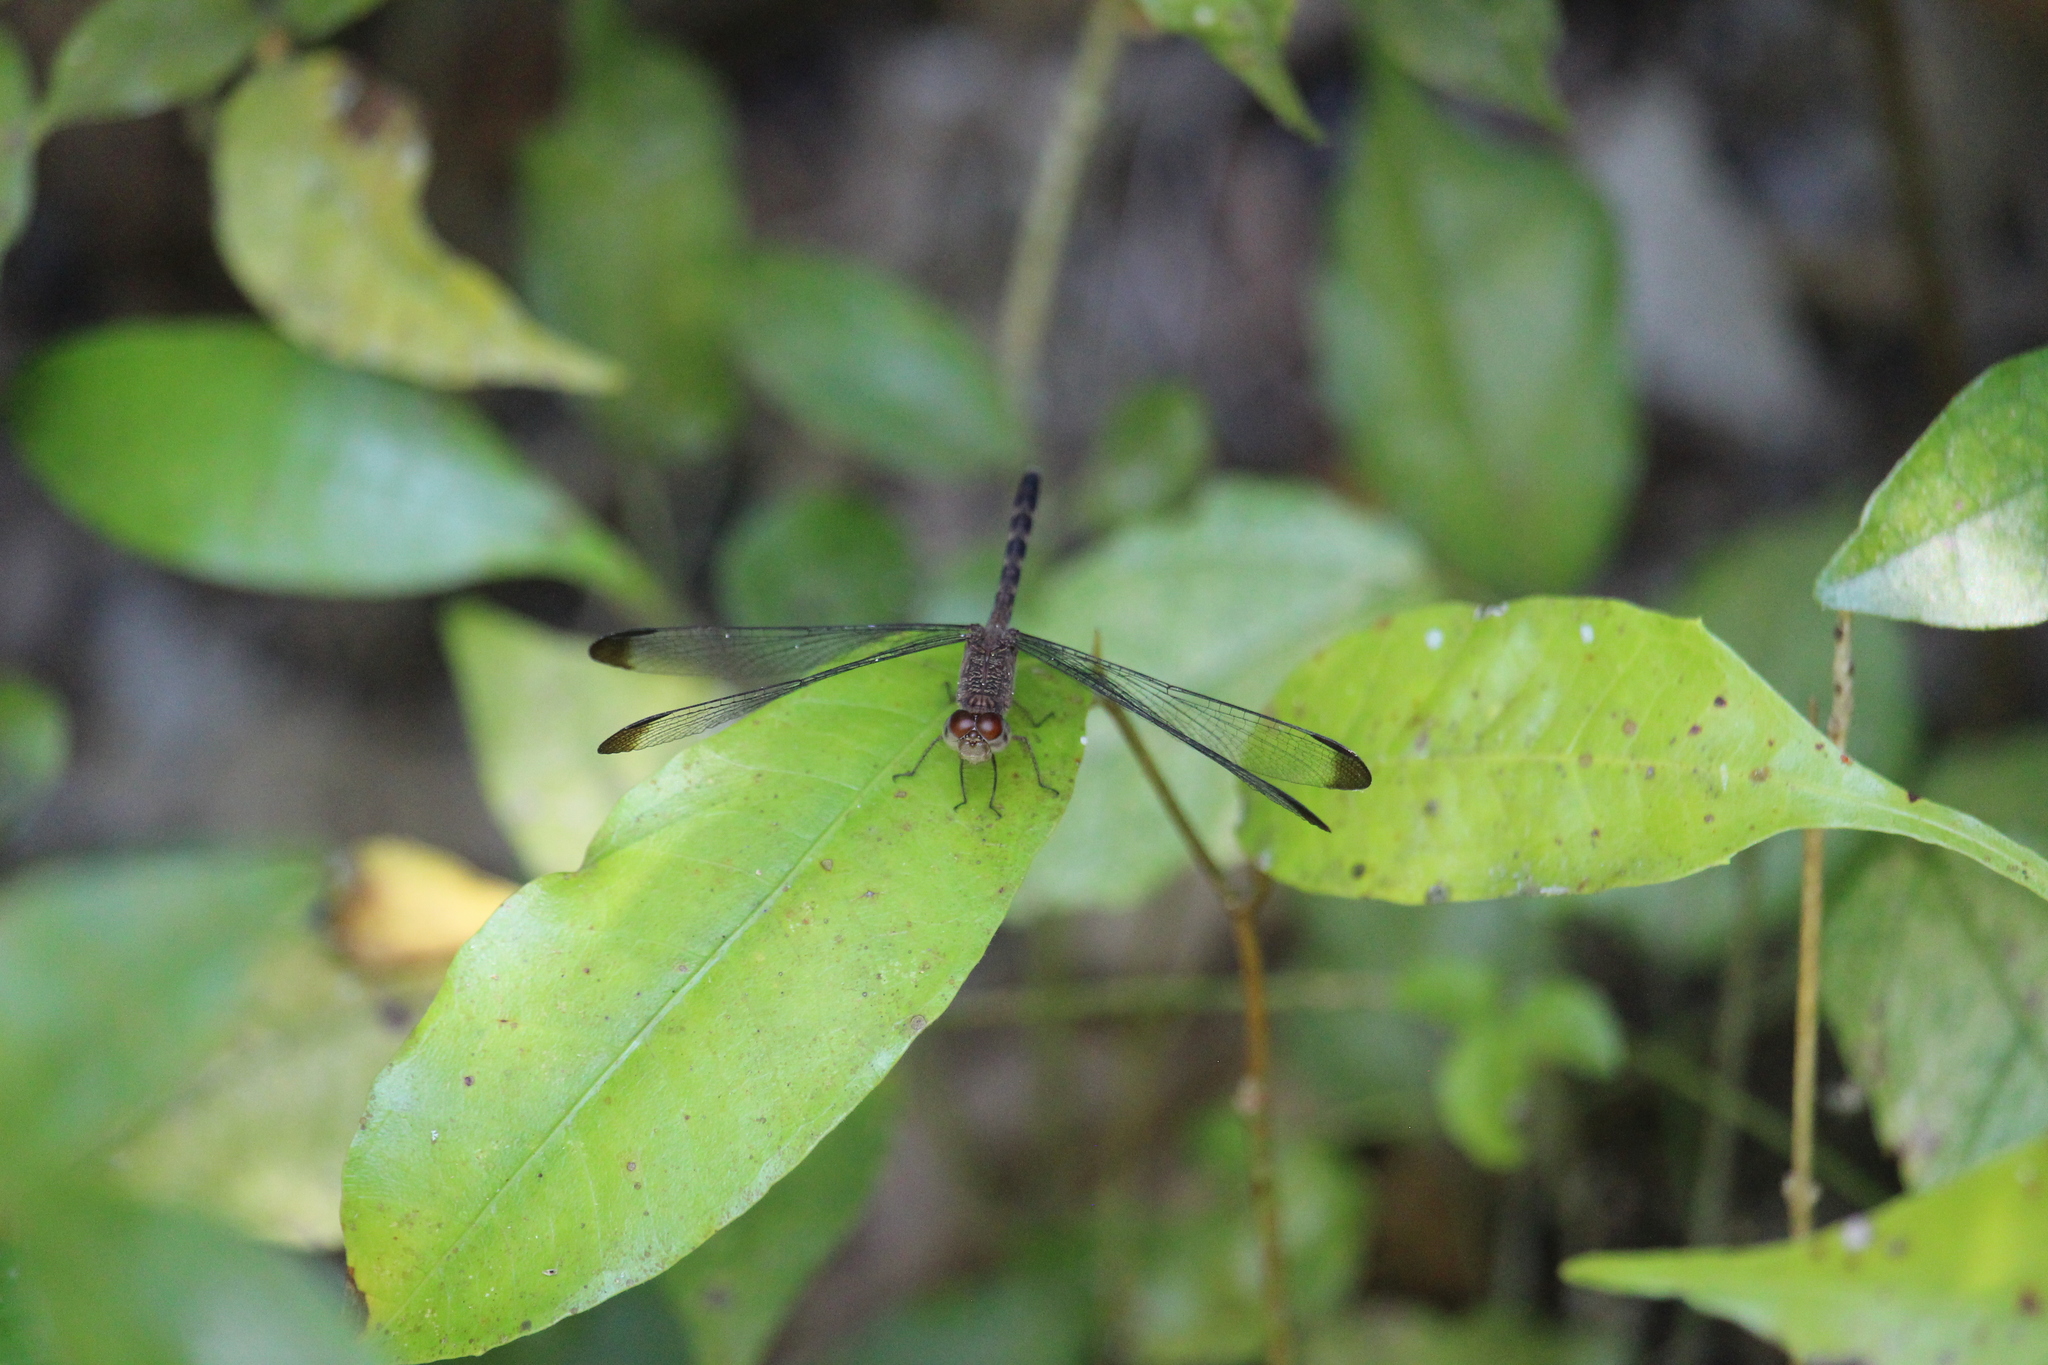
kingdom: Animalia
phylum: Arthropoda
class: Insecta
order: Odonata
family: Libellulidae
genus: Uracis
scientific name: Uracis imbuta
